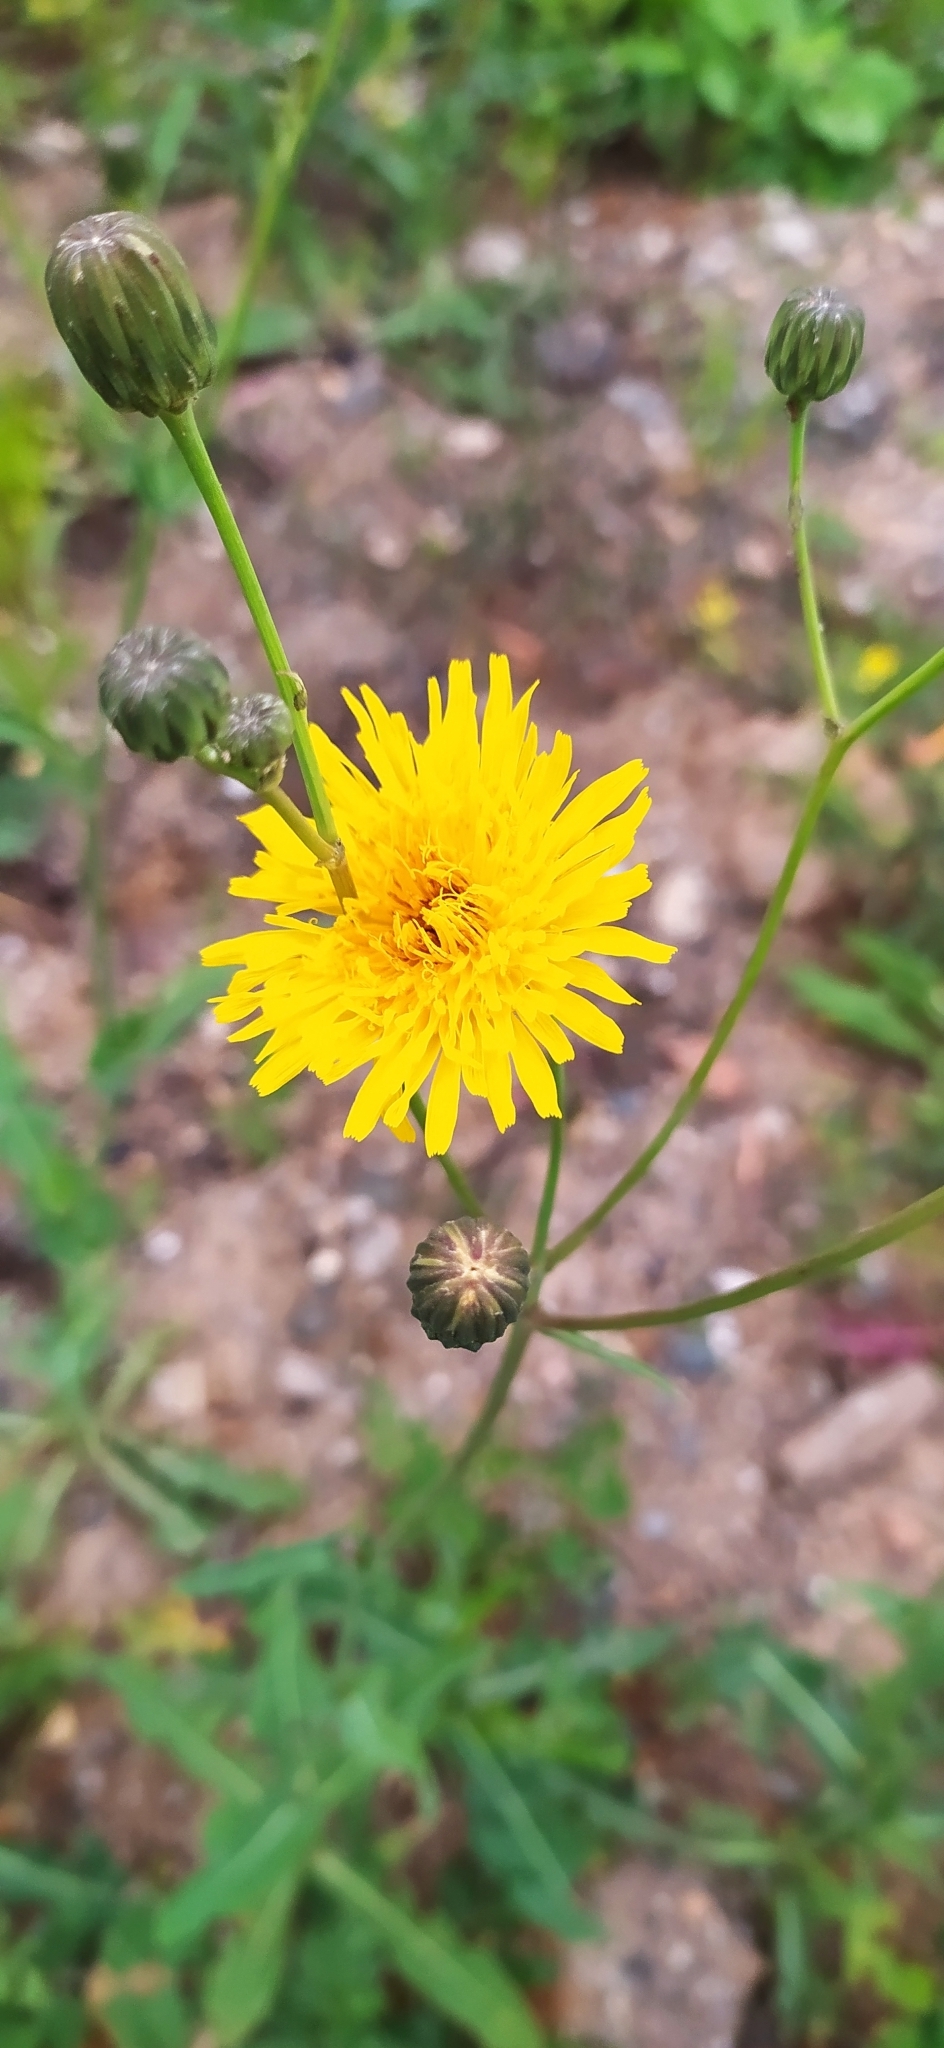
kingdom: Plantae
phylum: Tracheophyta
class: Magnoliopsida
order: Asterales
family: Asteraceae
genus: Sonchus
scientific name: Sonchus arvensis
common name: Perennial sow-thistle
